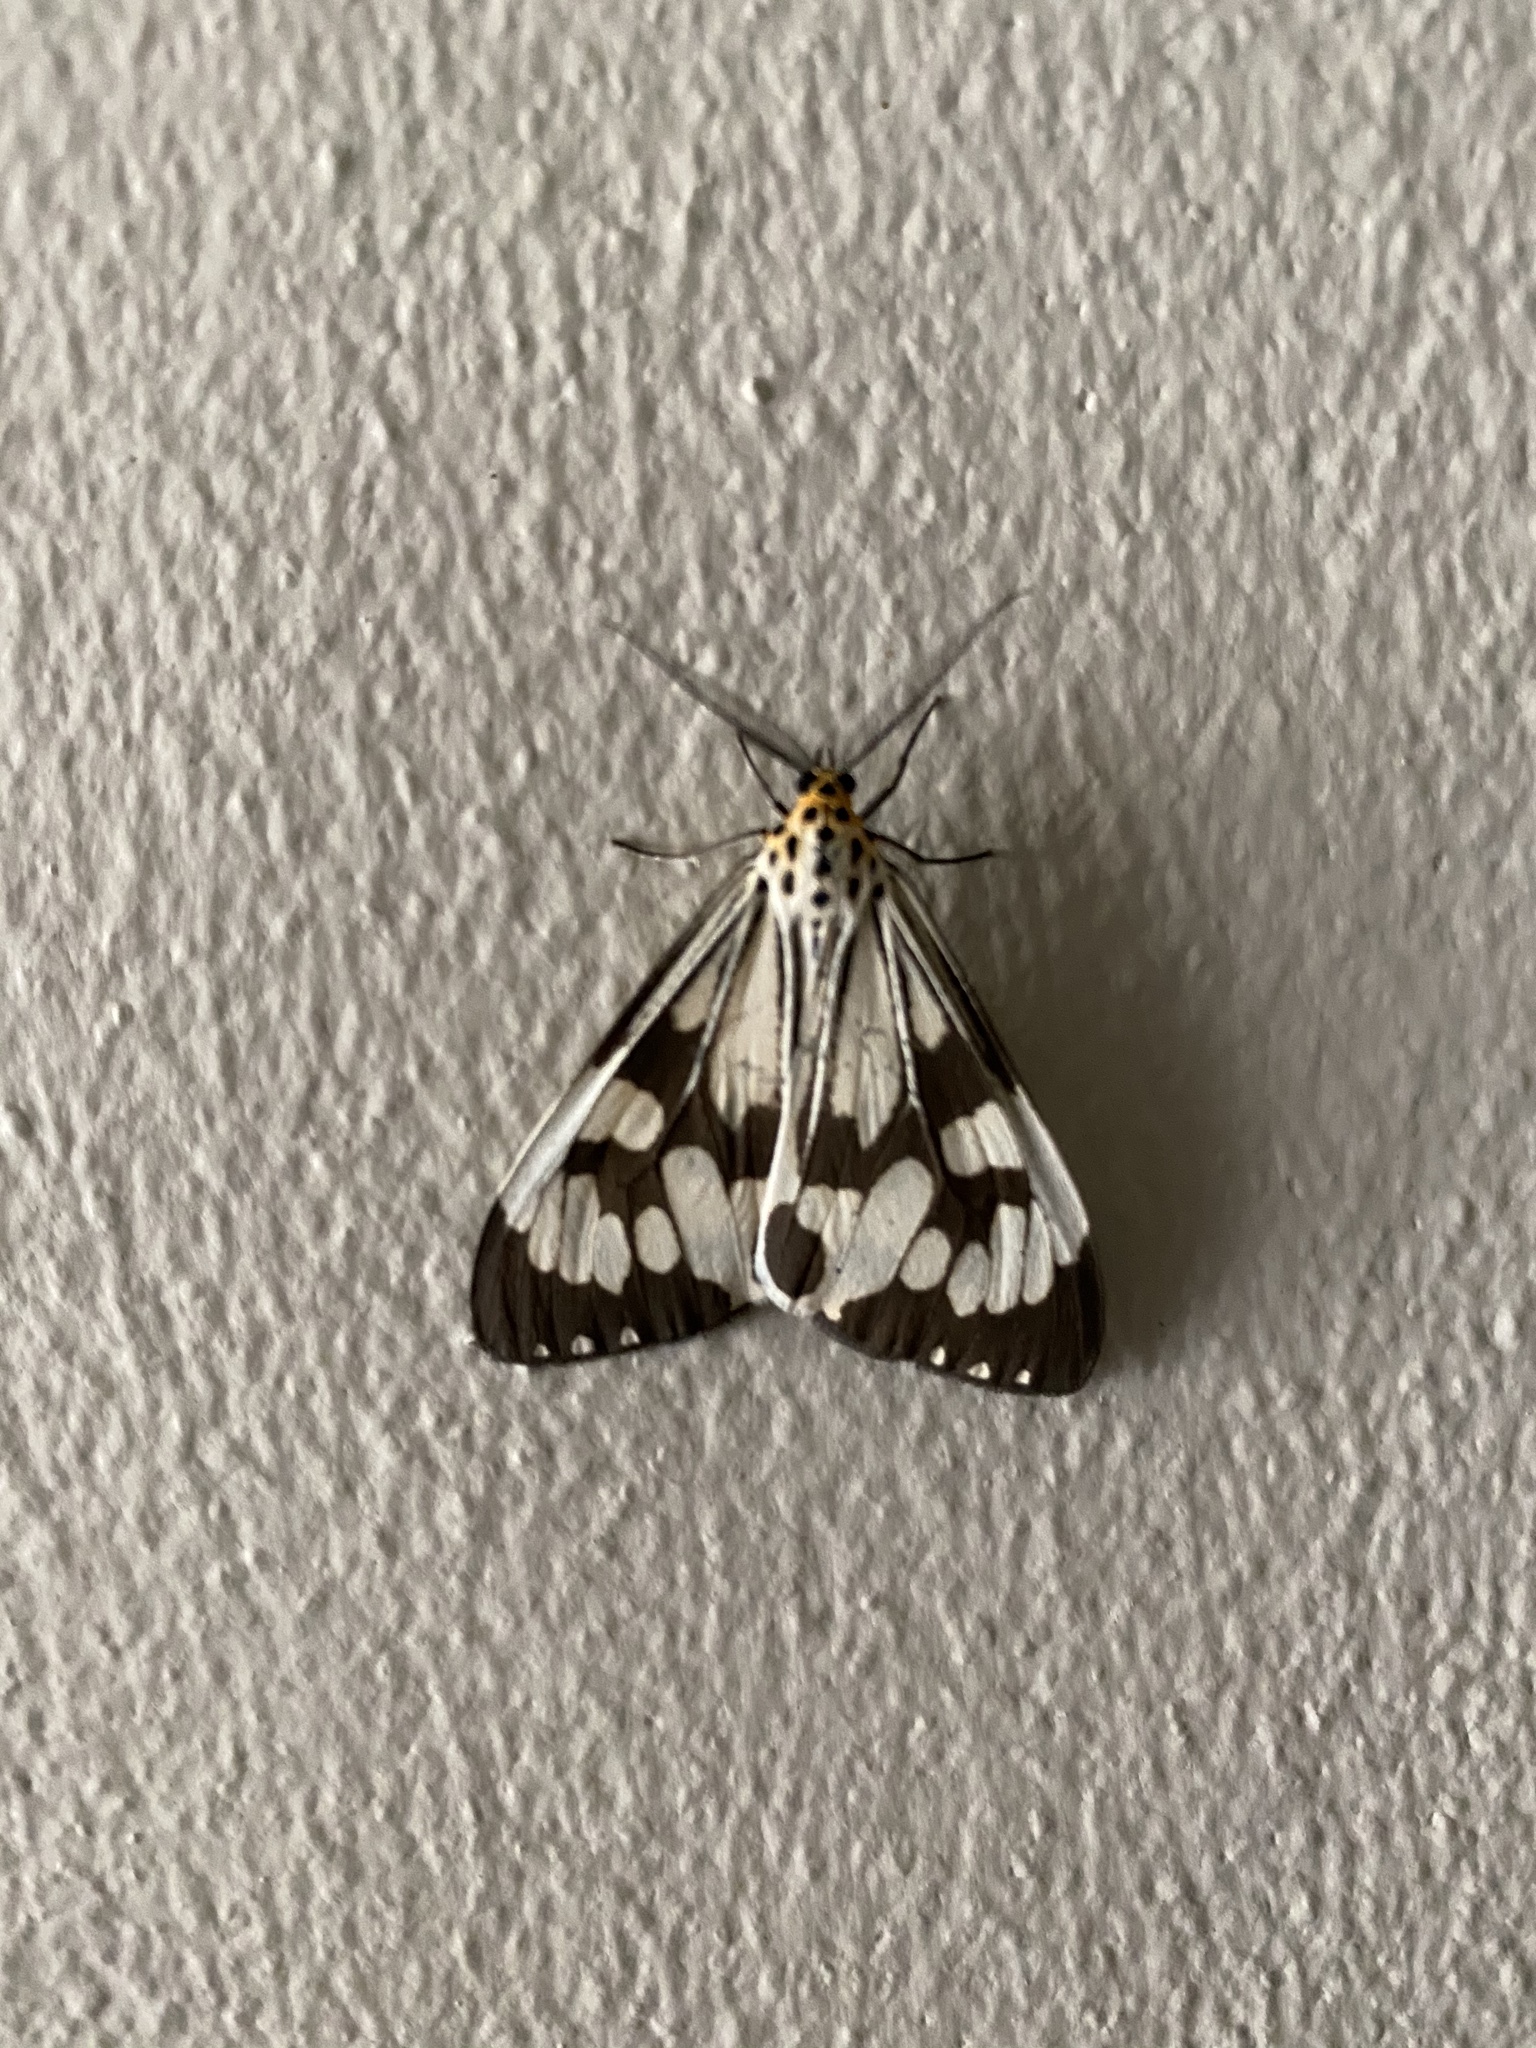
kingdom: Animalia
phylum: Arthropoda
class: Insecta
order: Lepidoptera
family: Erebidae
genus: Nyctemera
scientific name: Nyctemera adversata
